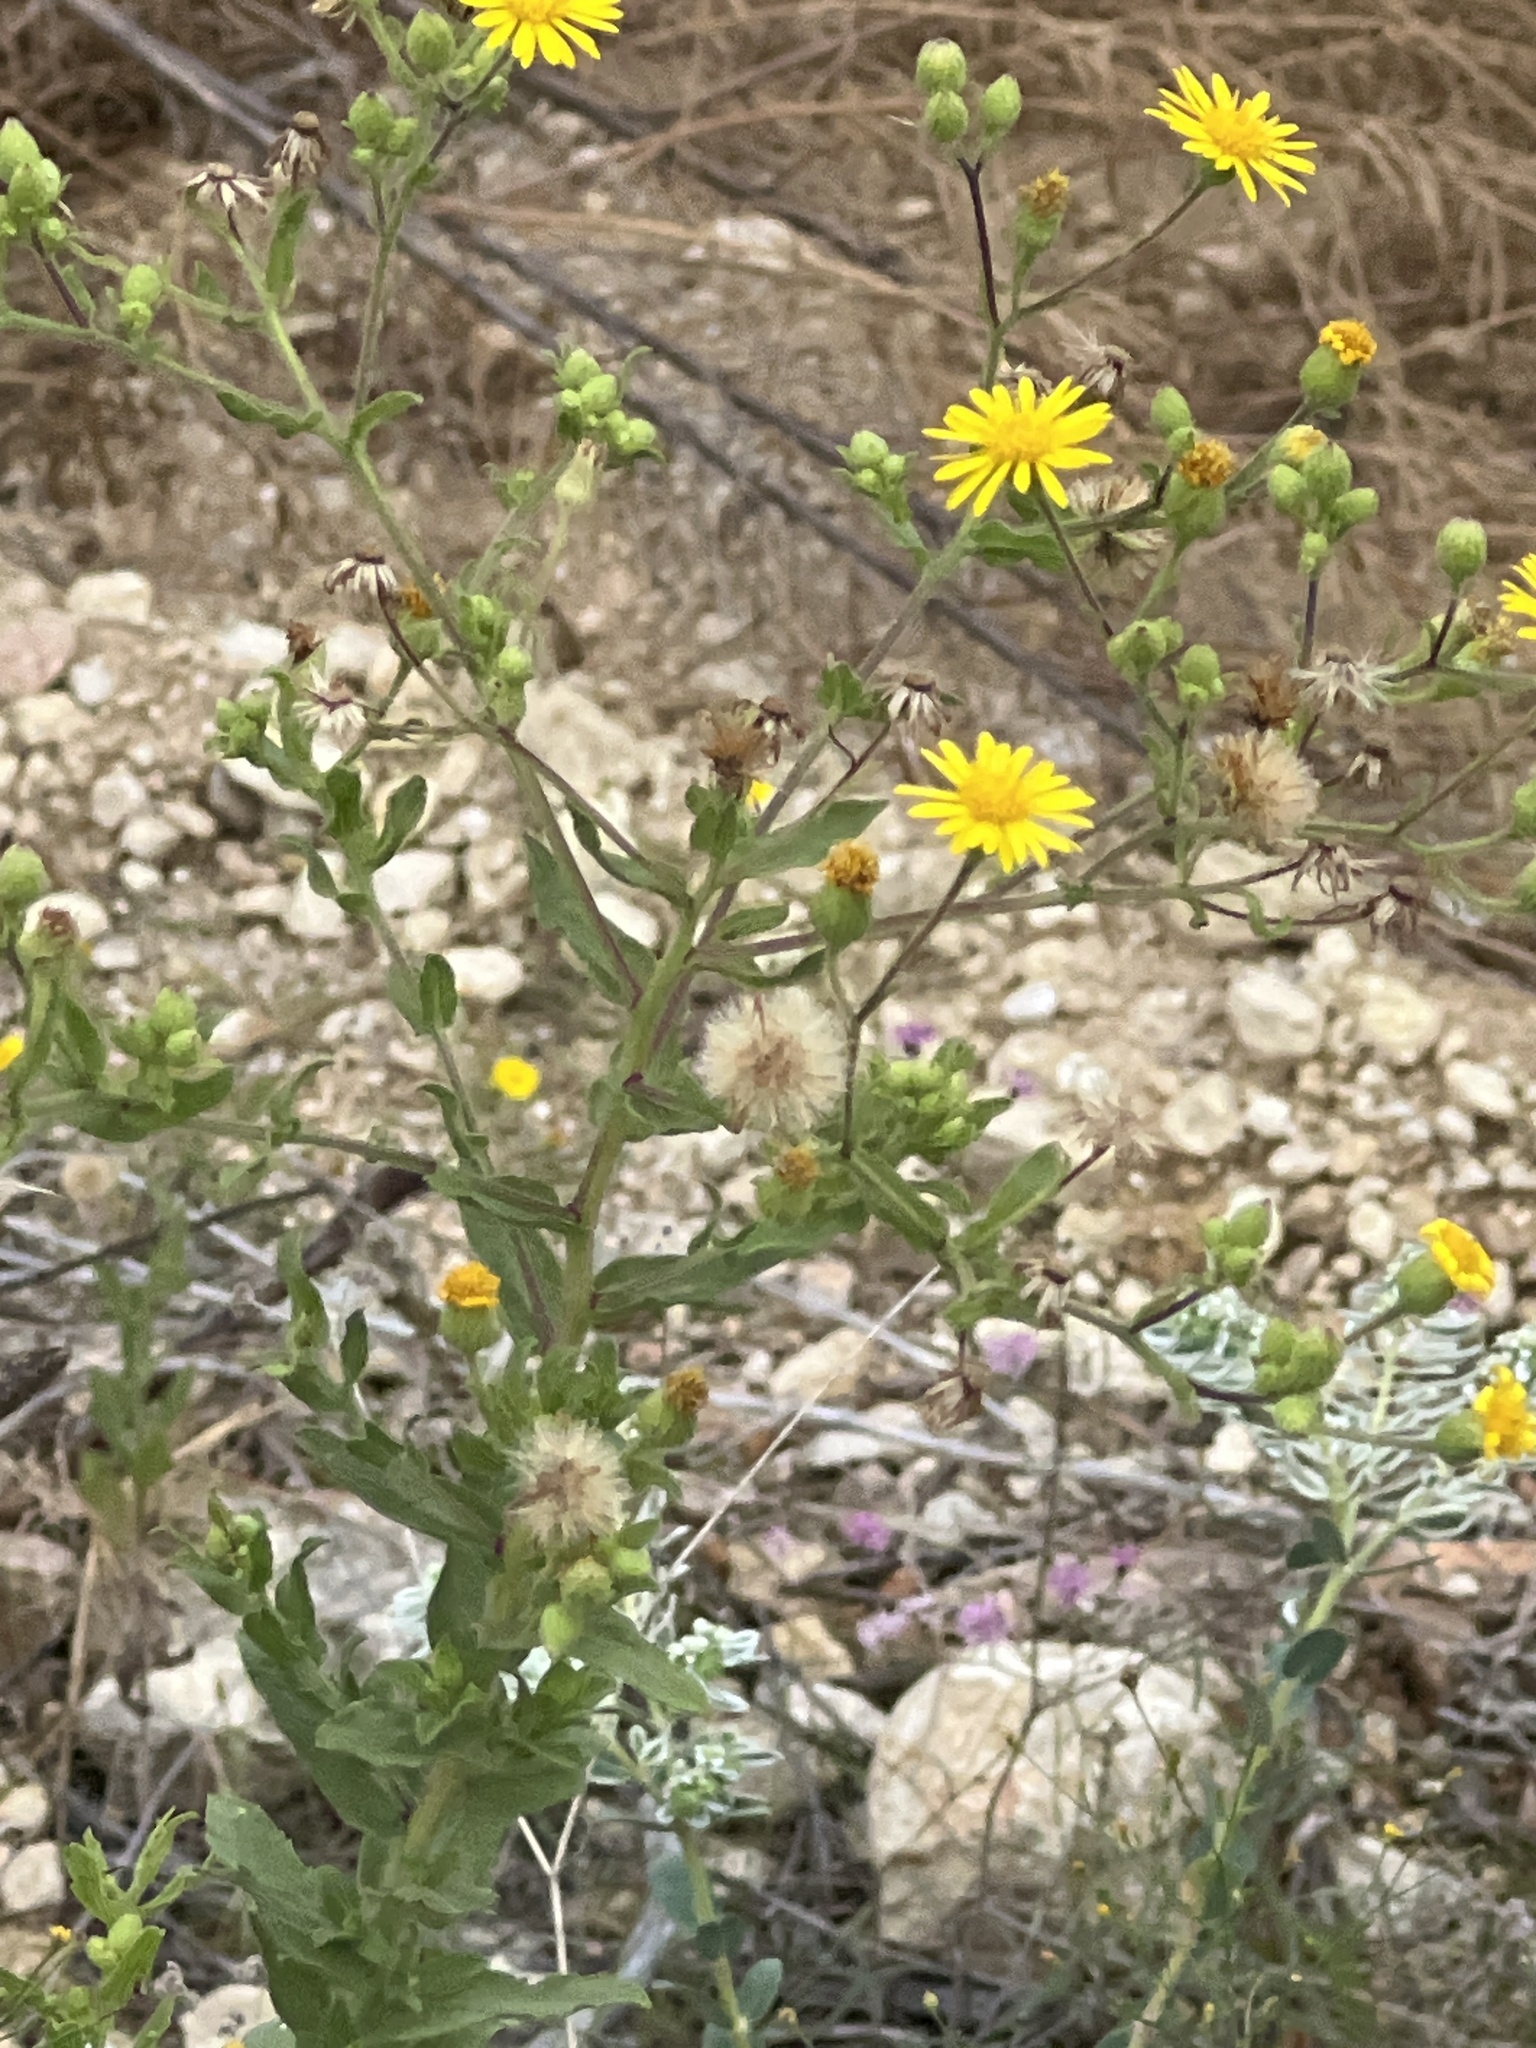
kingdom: Plantae
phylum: Tracheophyta
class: Magnoliopsida
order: Asterales
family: Asteraceae
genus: Heterotheca
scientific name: Heterotheca subaxillaris
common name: Camphorweed
